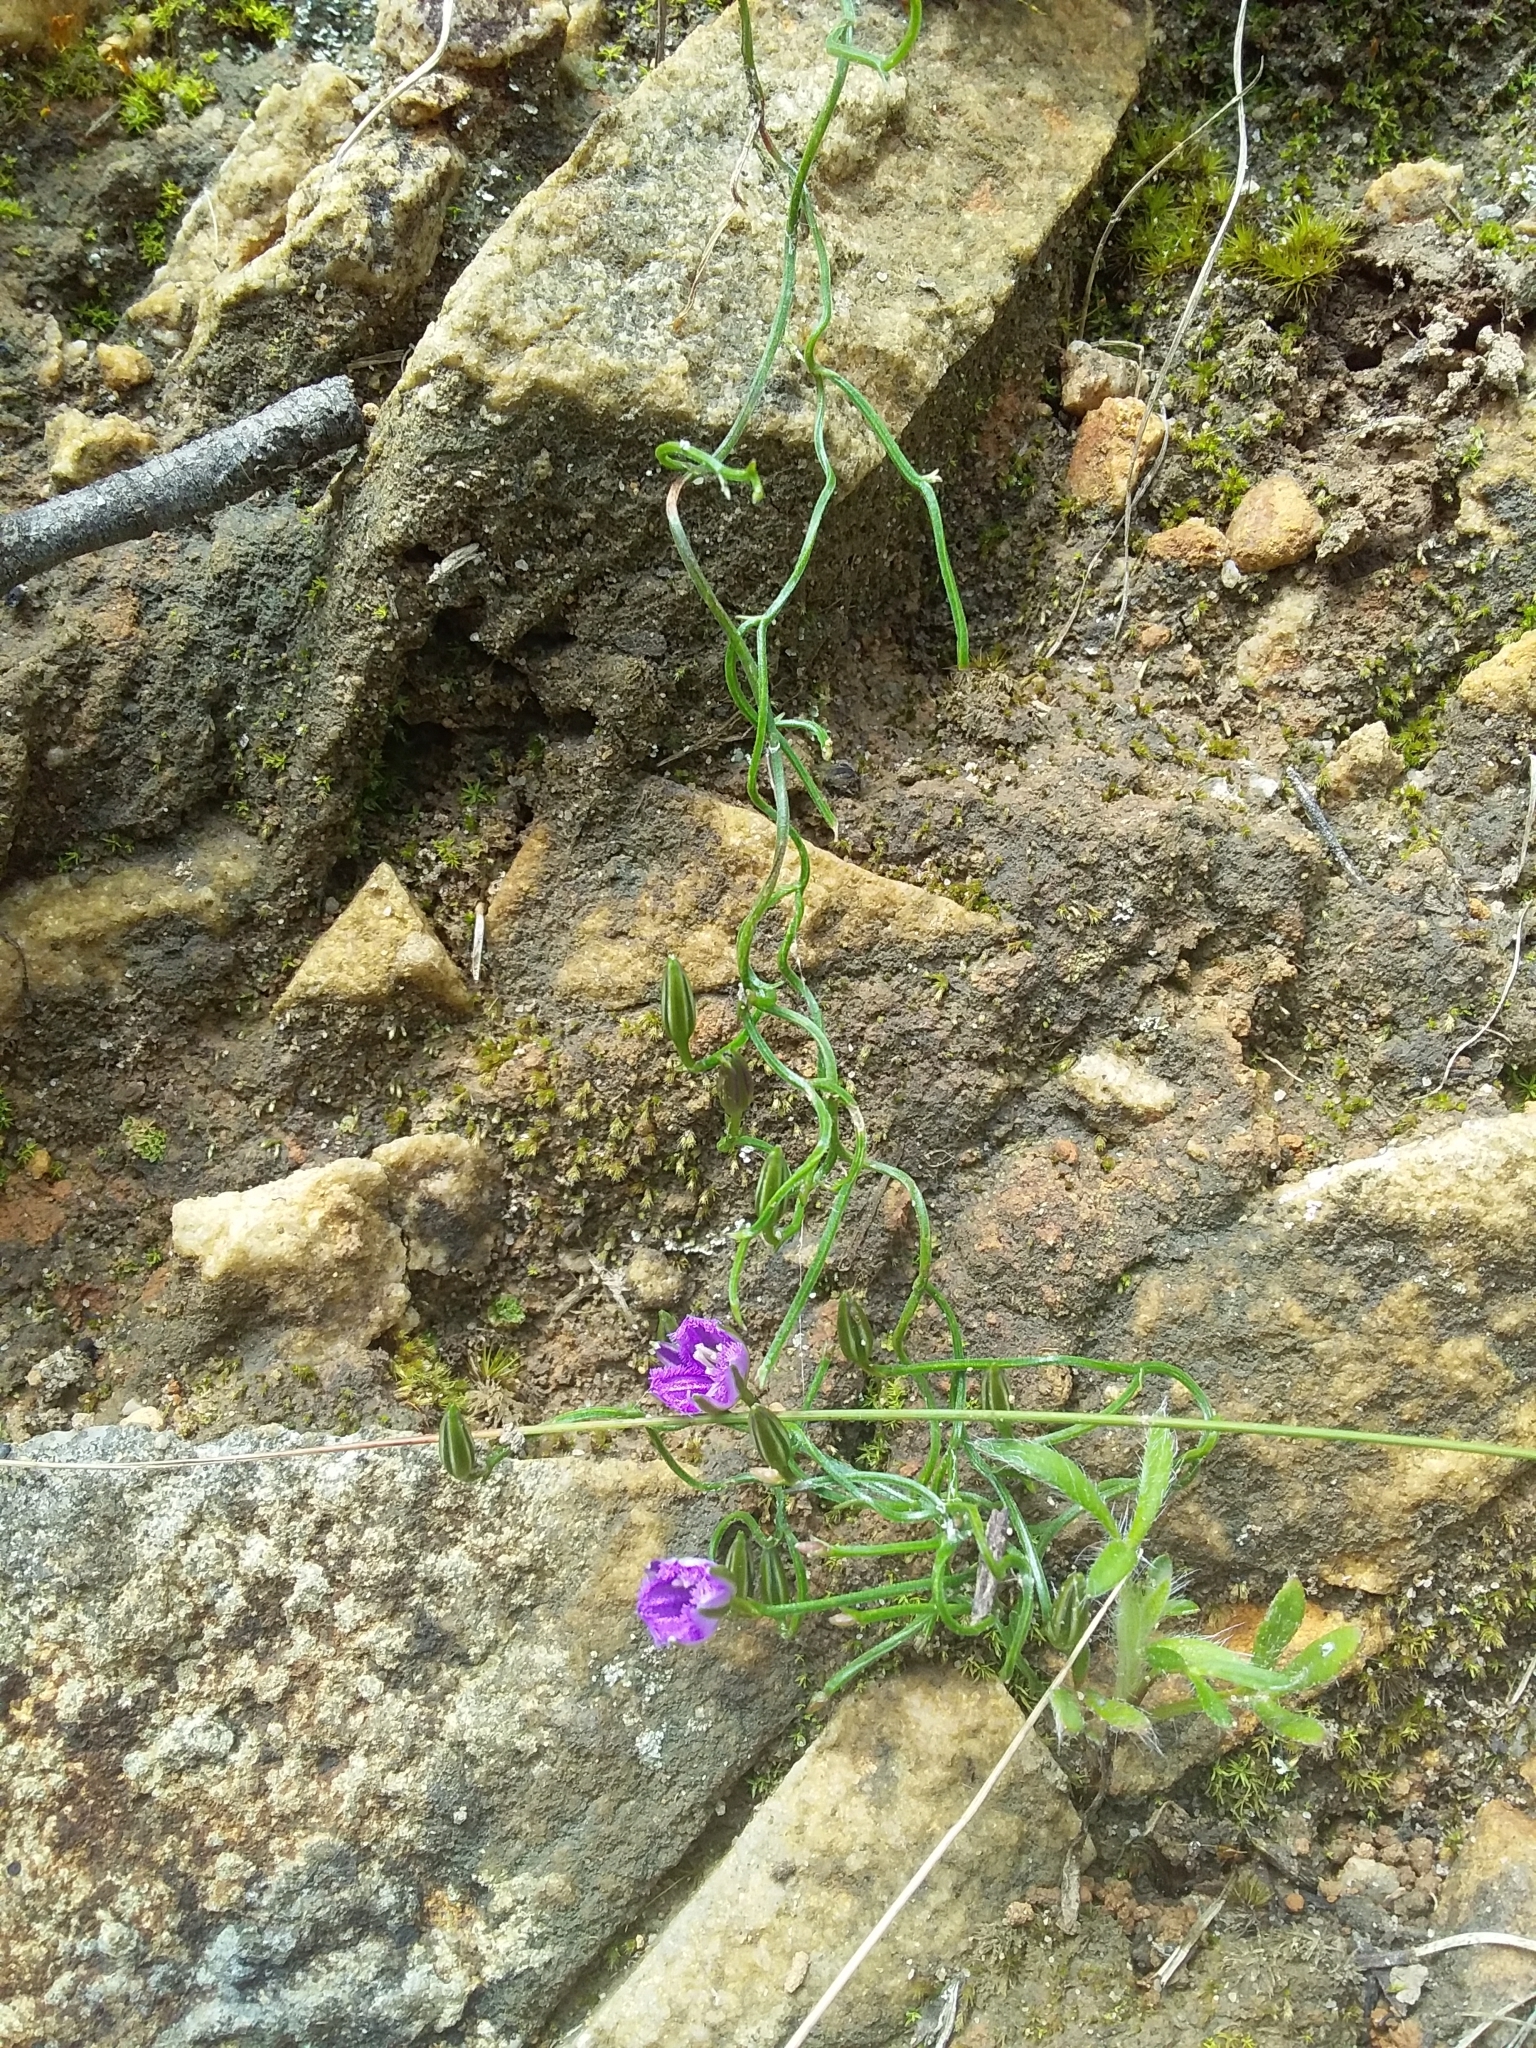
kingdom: Plantae
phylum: Tracheophyta
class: Liliopsida
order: Asparagales
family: Asparagaceae
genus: Thysanotus
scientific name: Thysanotus patersonii
